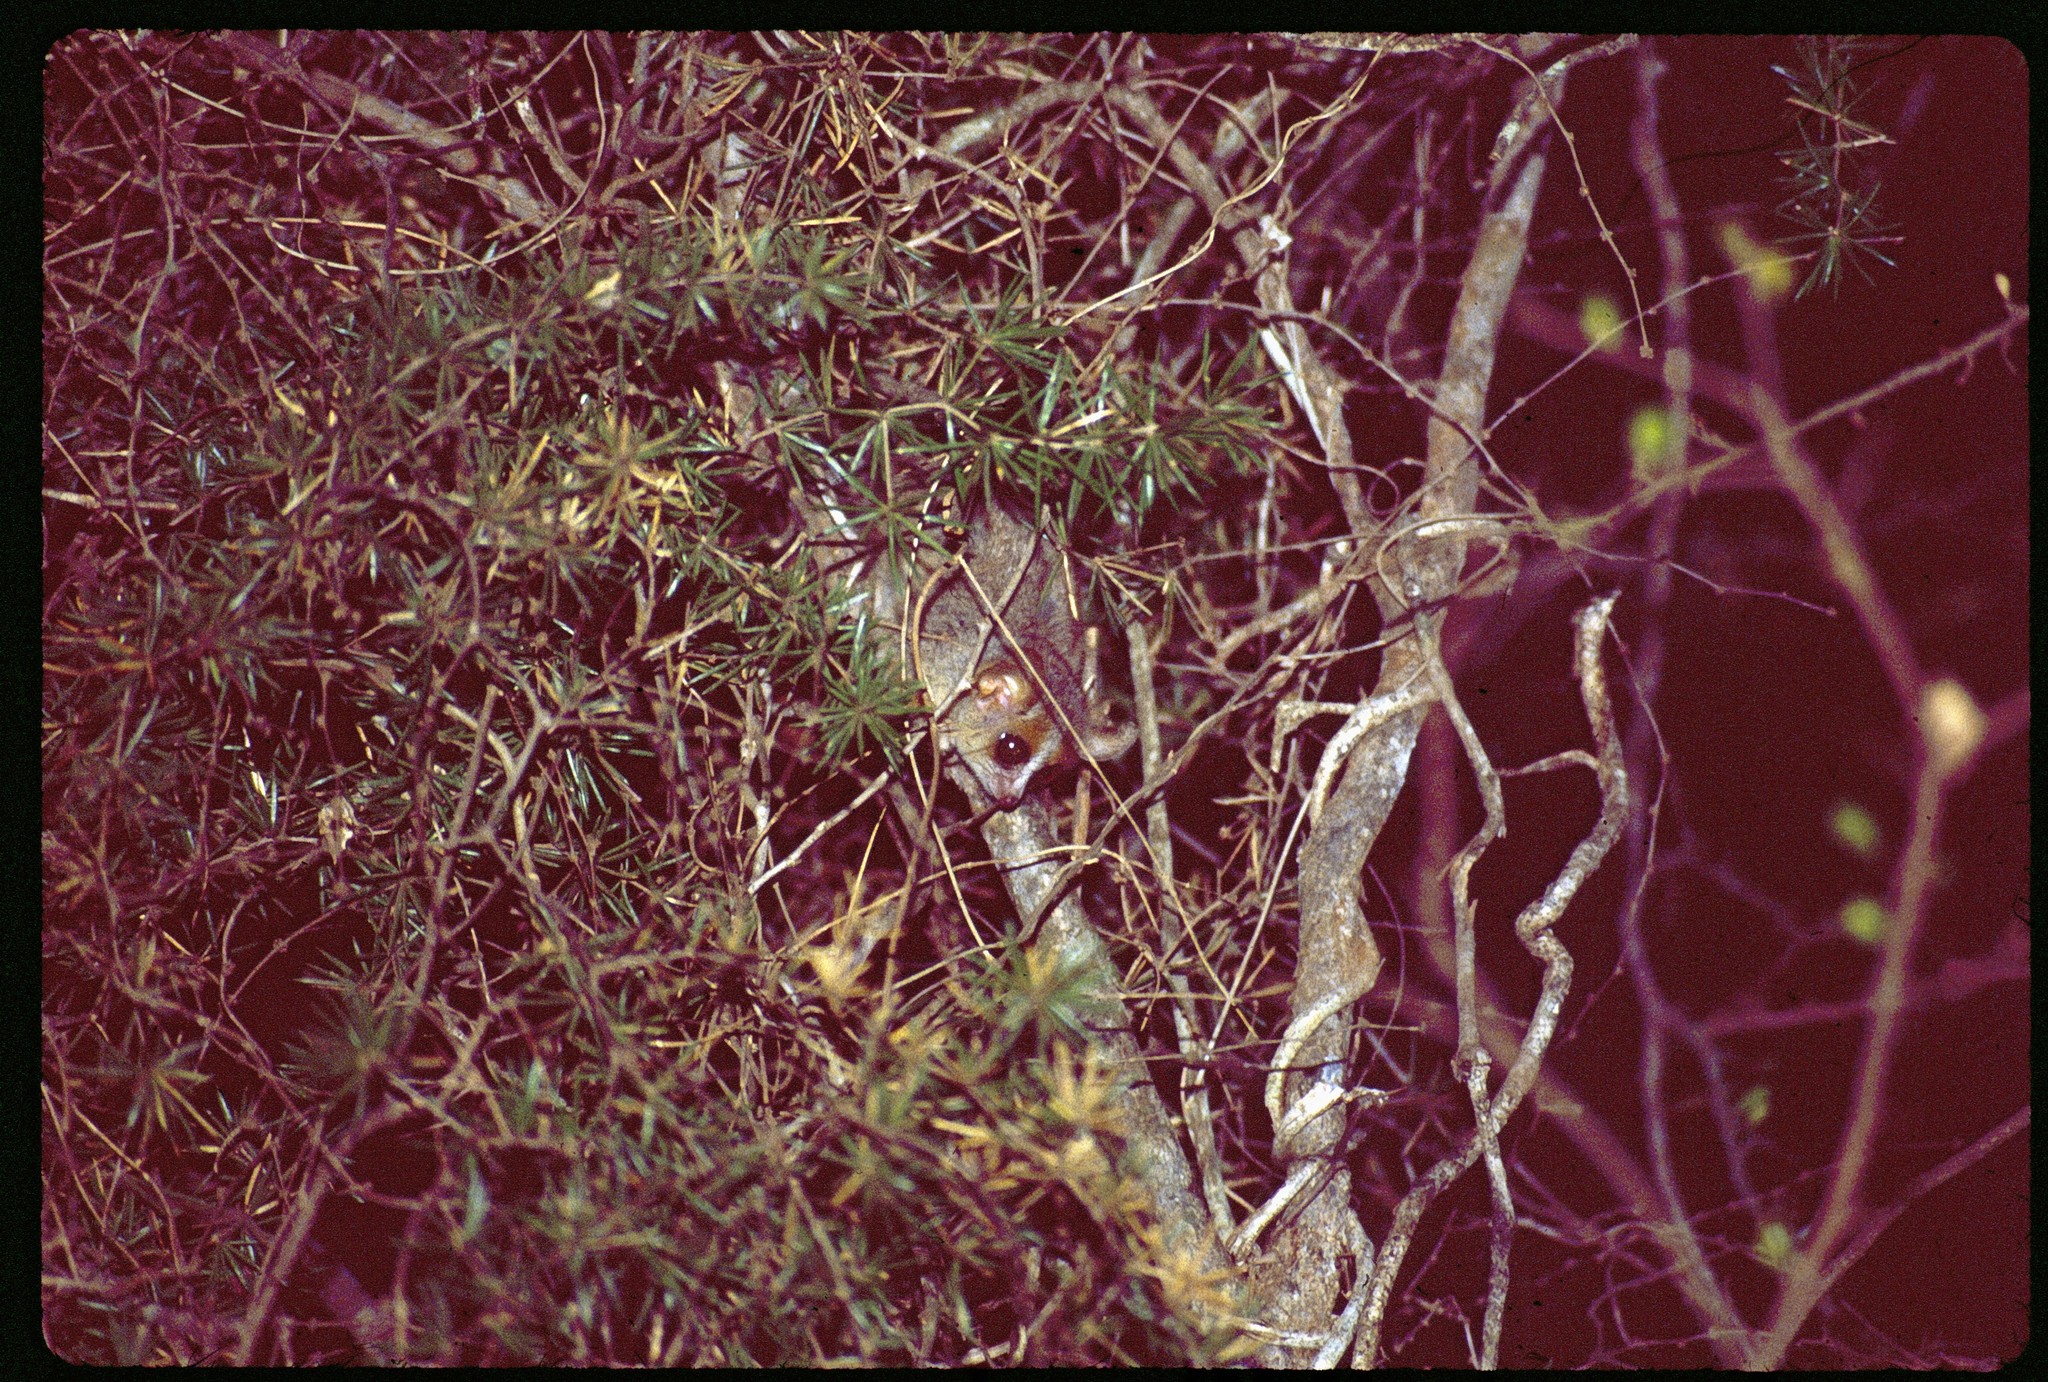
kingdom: Animalia
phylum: Chordata
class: Mammalia
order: Primates
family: Cheirogaleidae
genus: Microcebus
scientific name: Microcebus murinus
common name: Gray mouse lemur
